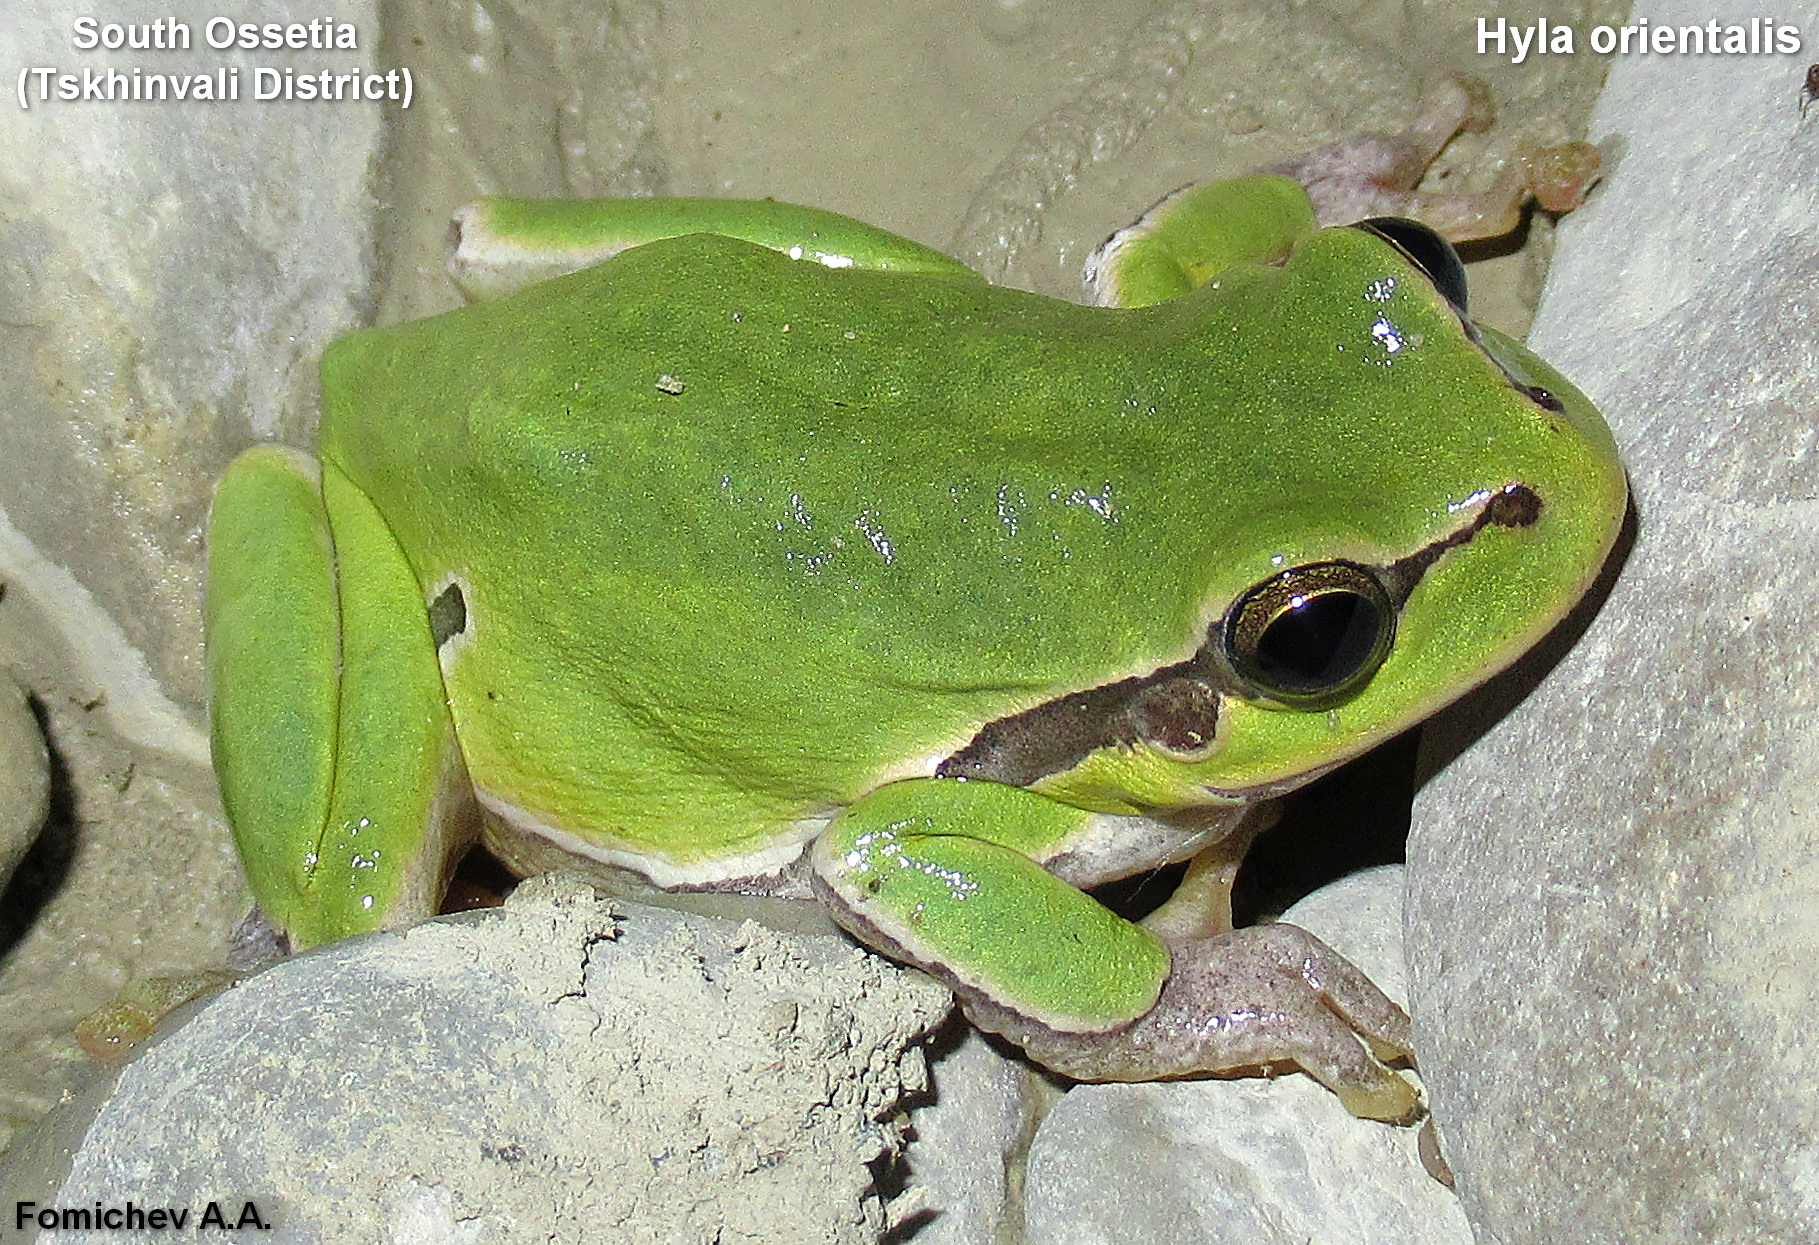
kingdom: Animalia
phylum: Chordata
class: Amphibia
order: Anura
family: Hylidae
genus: Hyla
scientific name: Hyla orientalis
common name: Caucasian treefrog
